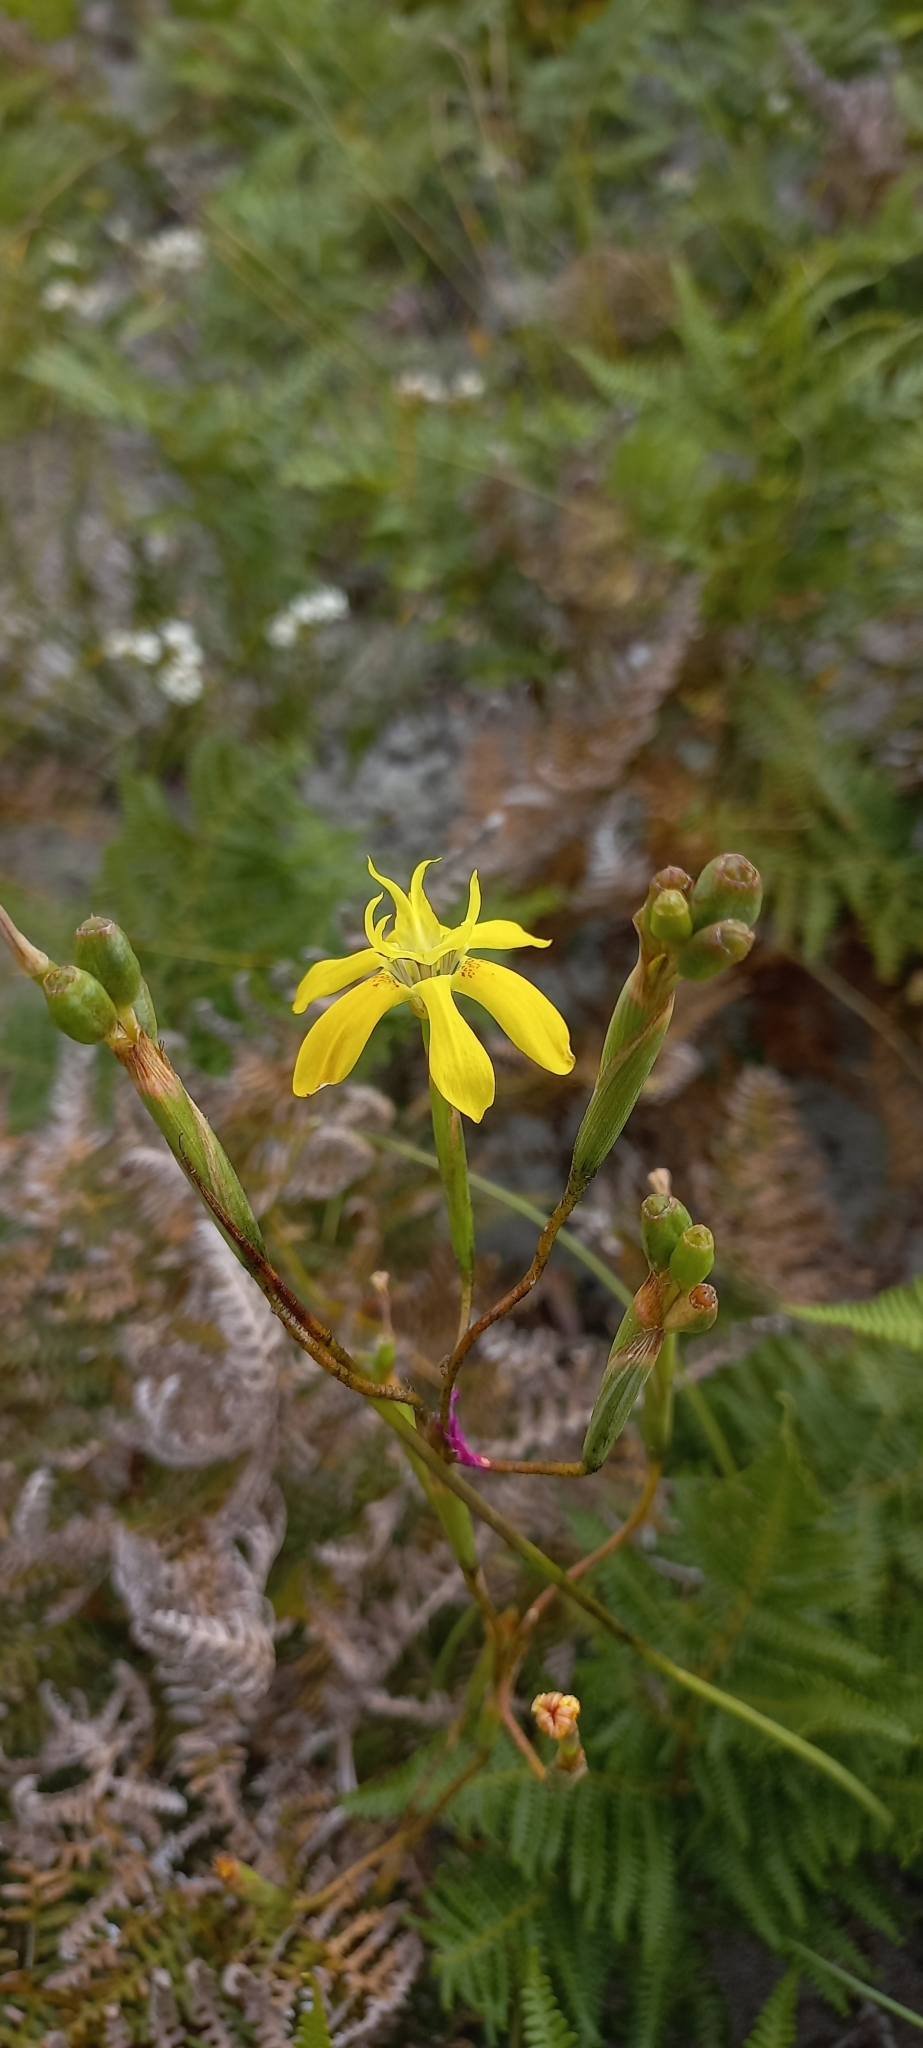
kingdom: Plantae
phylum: Tracheophyta
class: Liliopsida
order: Asparagales
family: Iridaceae
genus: Moraea
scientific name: Moraea bituminosa
